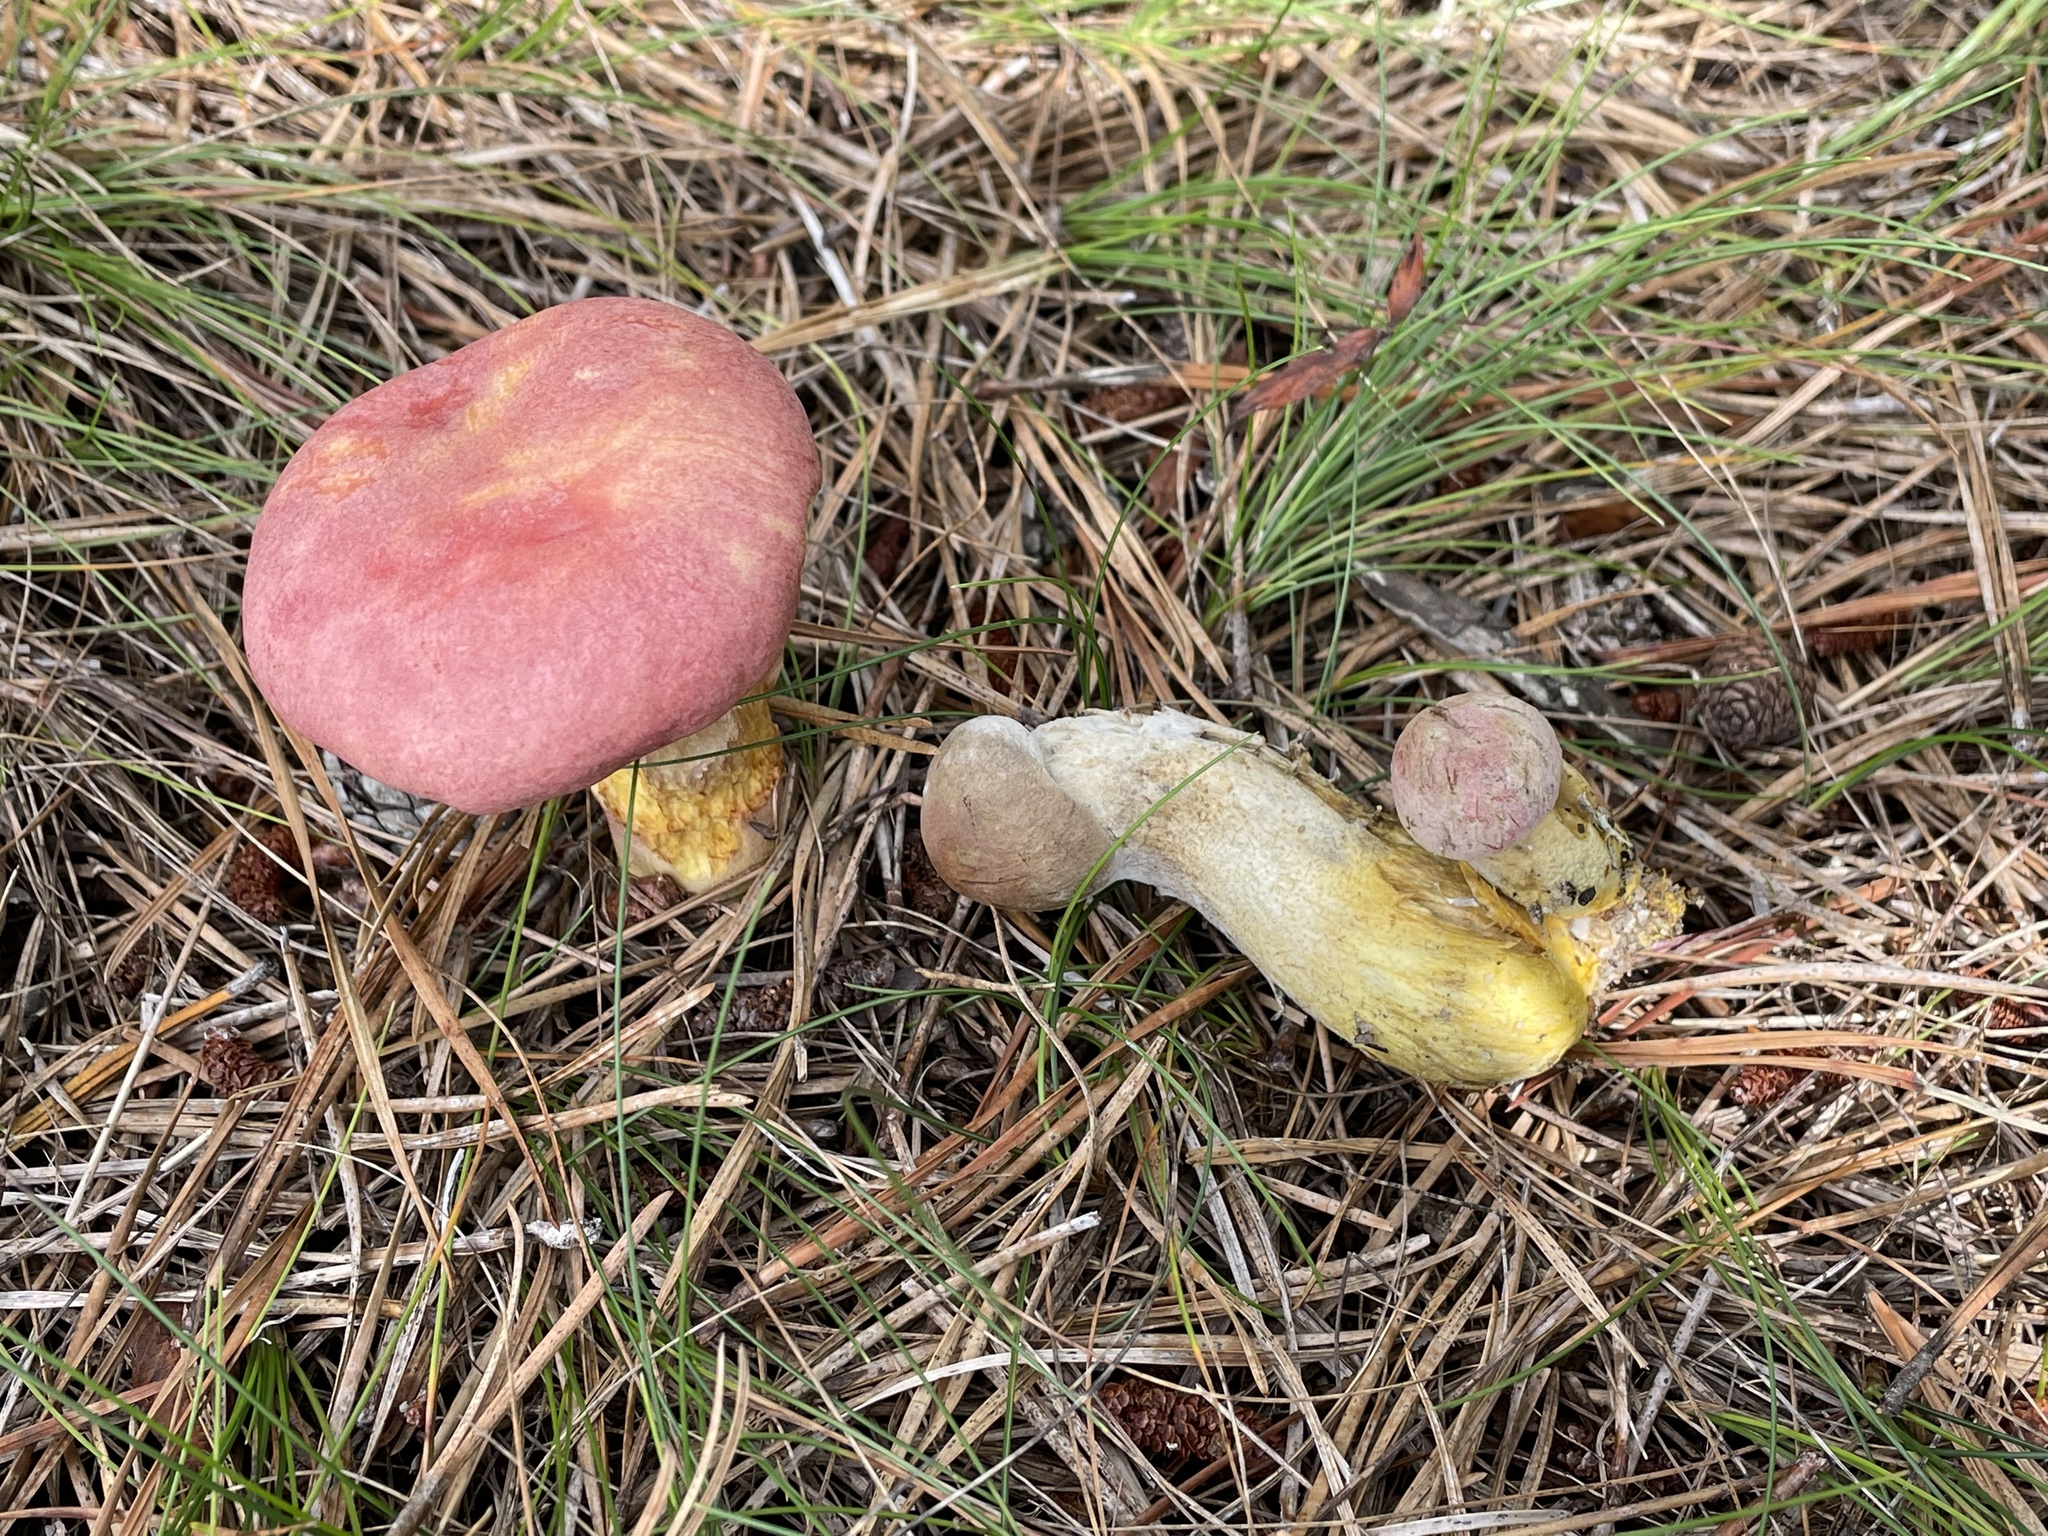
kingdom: Fungi
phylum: Basidiomycota
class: Agaricomycetes
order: Boletales
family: Boletaceae
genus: Harrya
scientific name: Harrya chromipes
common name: Chrome-footed bolete
